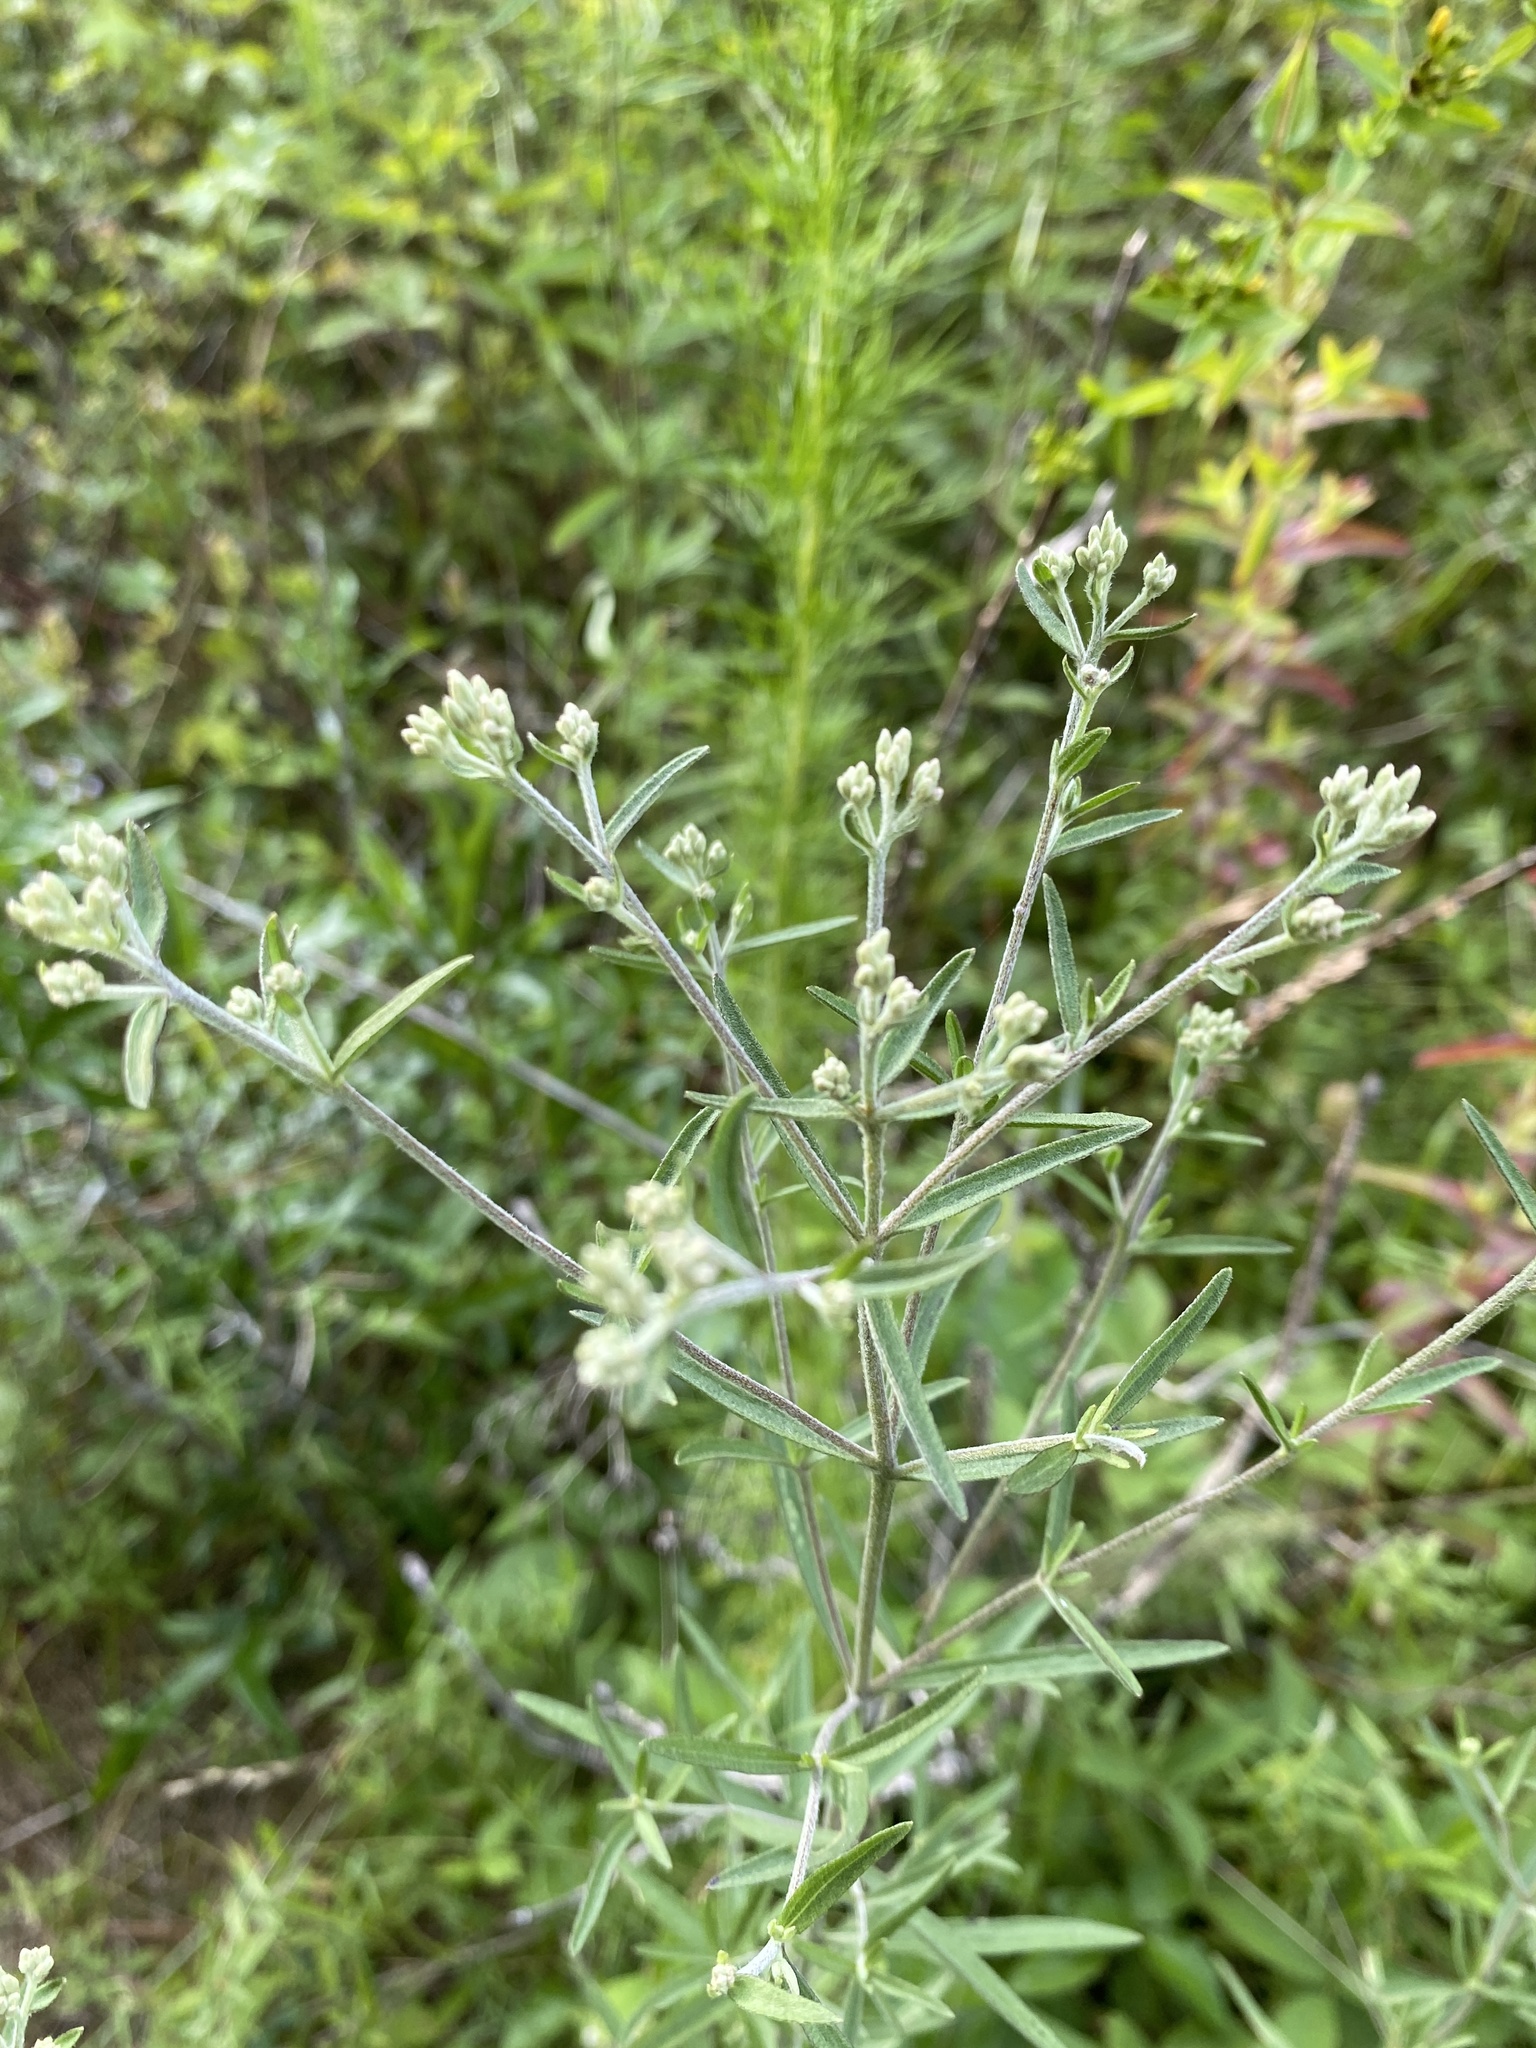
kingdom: Plantae
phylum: Tracheophyta
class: Magnoliopsida
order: Asterales
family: Asteraceae
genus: Eupatorium
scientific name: Eupatorium torreyanum
